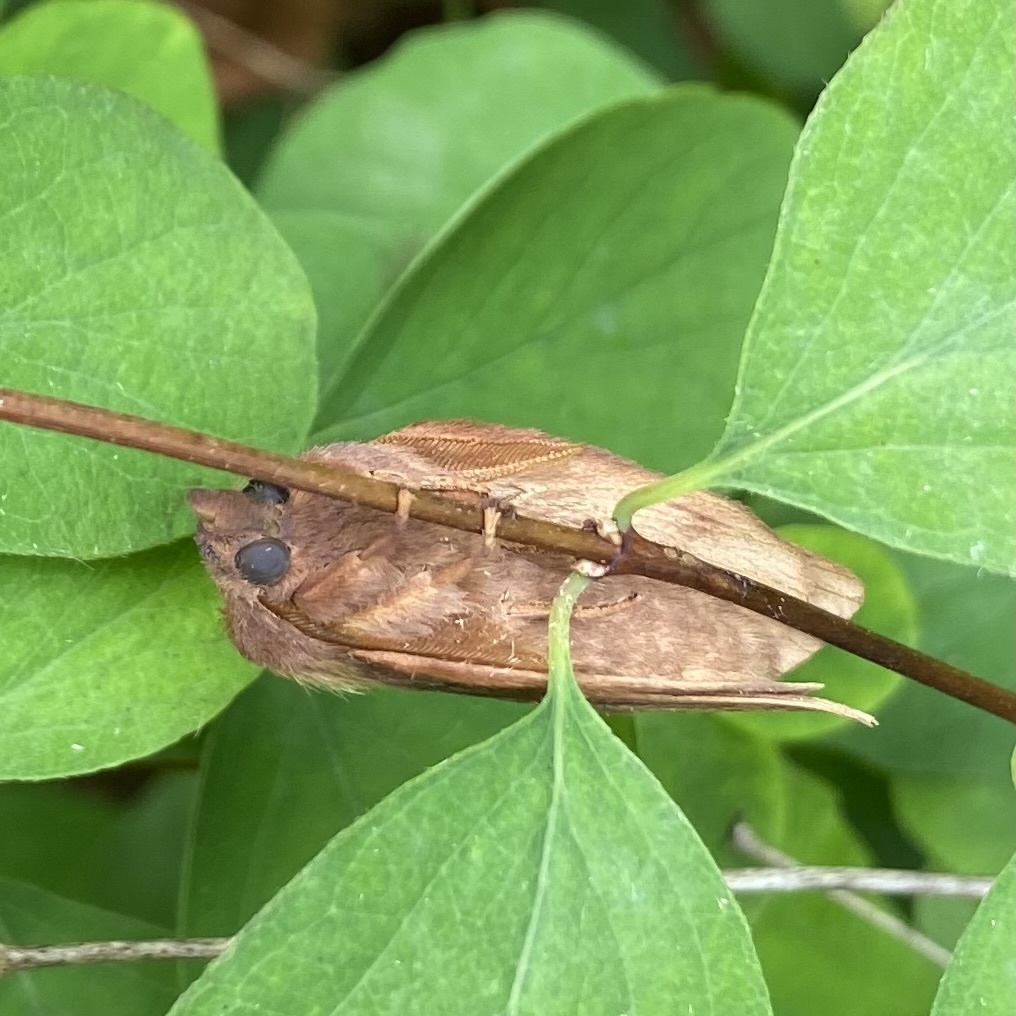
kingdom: Animalia
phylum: Arthropoda
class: Insecta
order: Lepidoptera
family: Lasiocampidae
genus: Euthrix
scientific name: Euthrix potatoria
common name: Drinker
